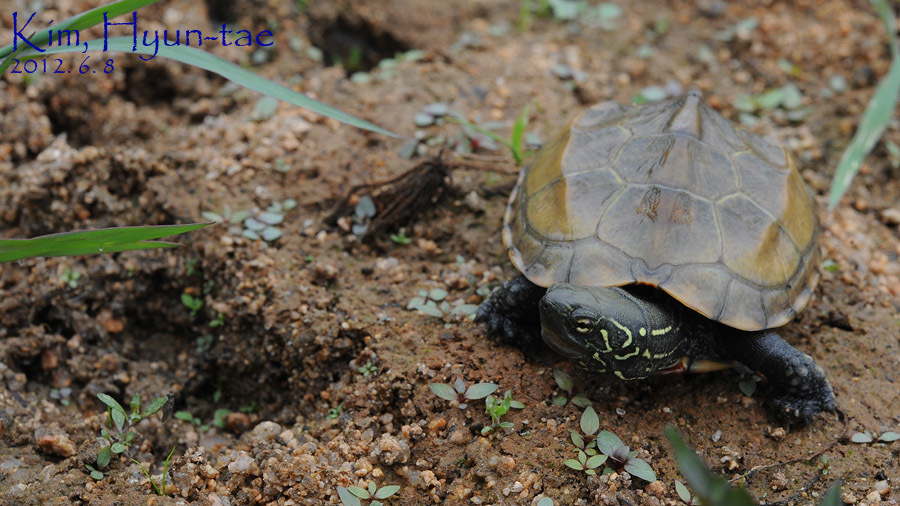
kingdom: Animalia
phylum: Chordata
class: Testudines
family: Geoemydidae
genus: Mauremys
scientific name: Mauremys reevesii
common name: Chinese pond turtle
